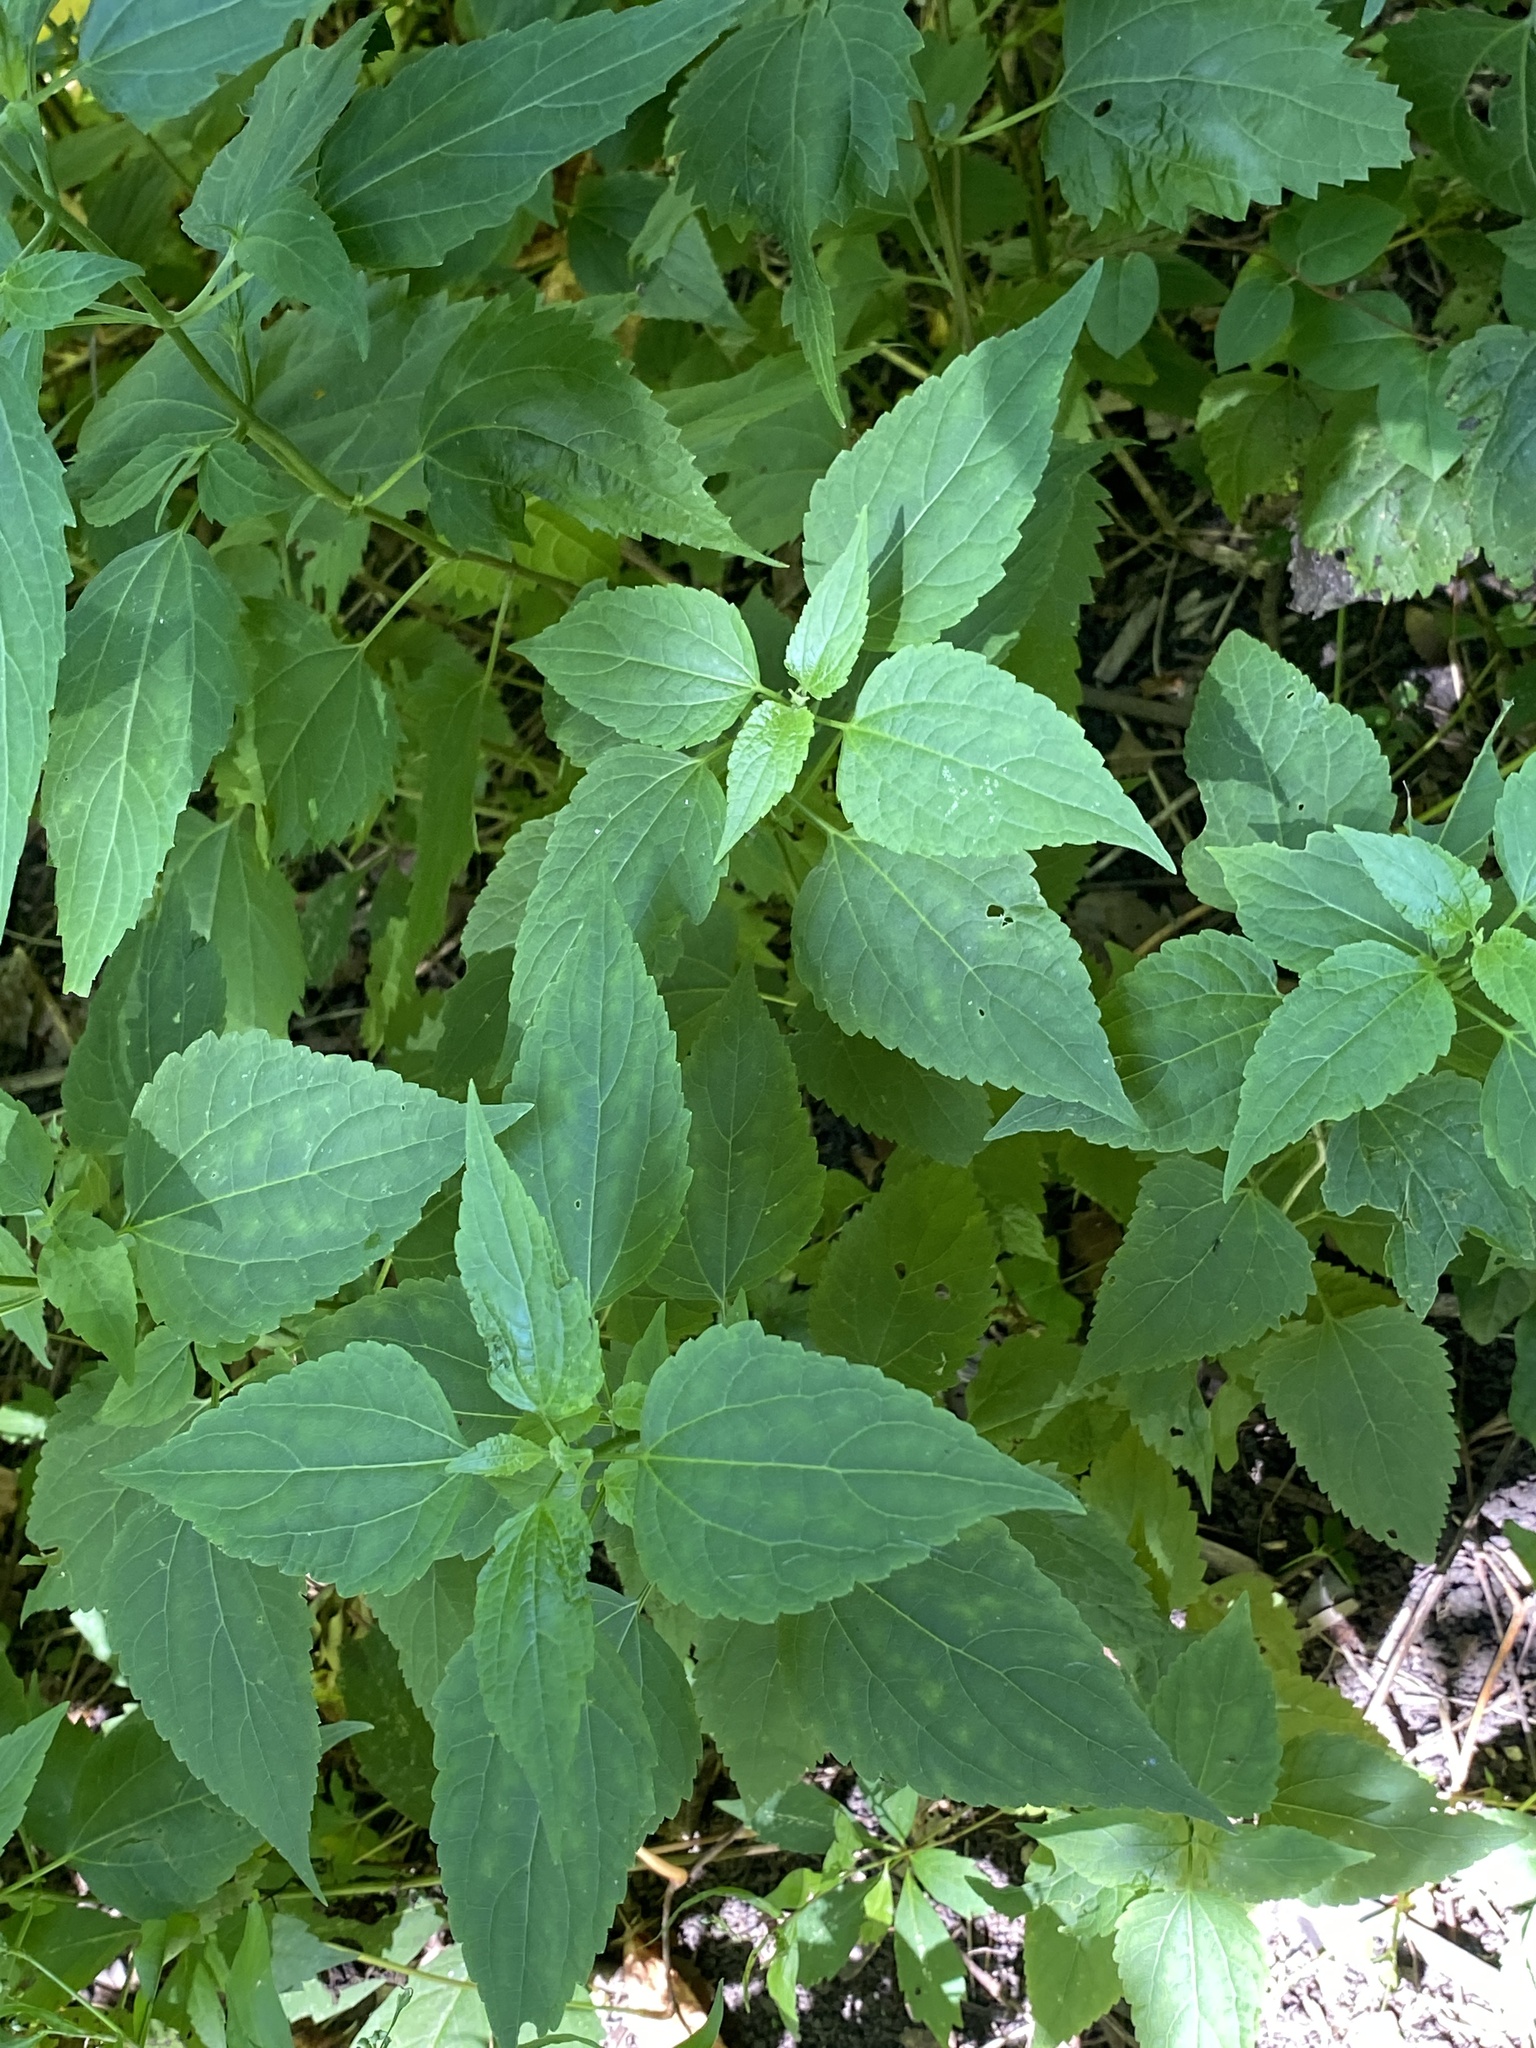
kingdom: Plantae
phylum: Tracheophyta
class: Magnoliopsida
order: Asterales
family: Asteraceae
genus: Ageratina
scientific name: Ageratina altissima
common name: White snakeroot
